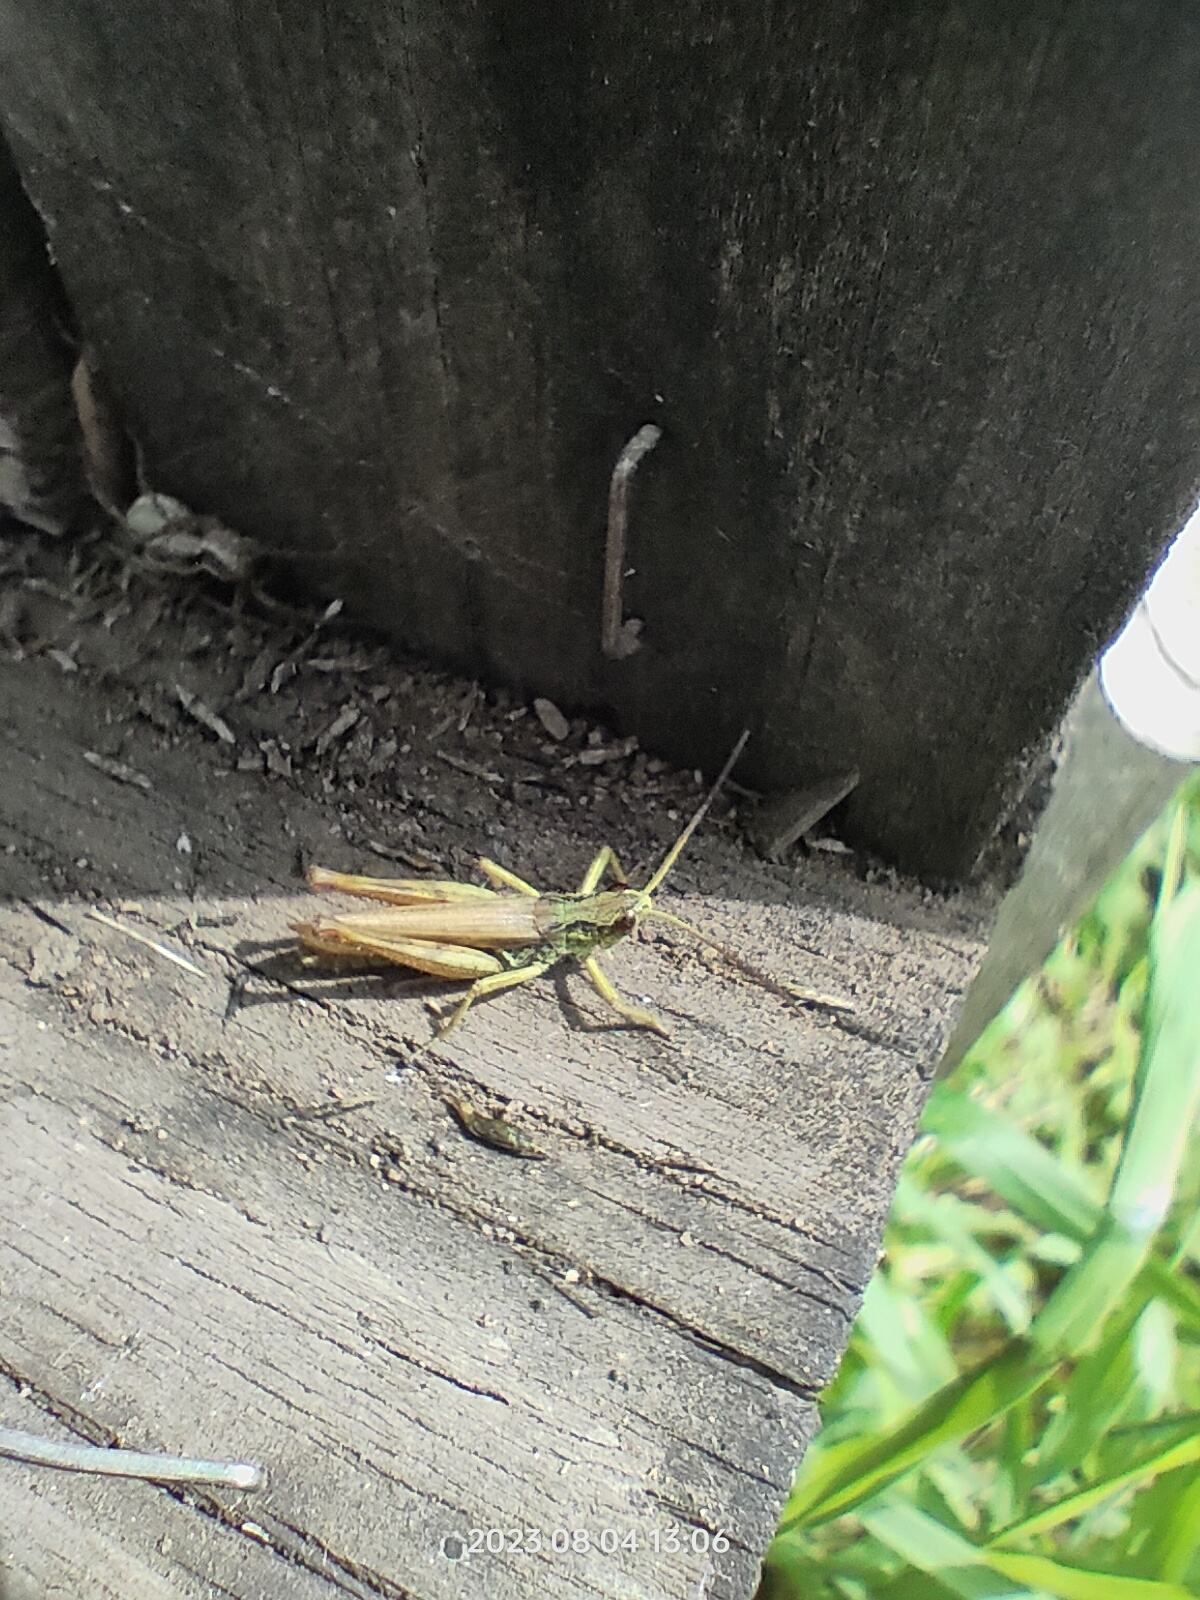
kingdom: Animalia
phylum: Arthropoda
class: Insecta
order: Orthoptera
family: Acrididae
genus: Chorthippus
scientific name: Chorthippus hammarstroemi
